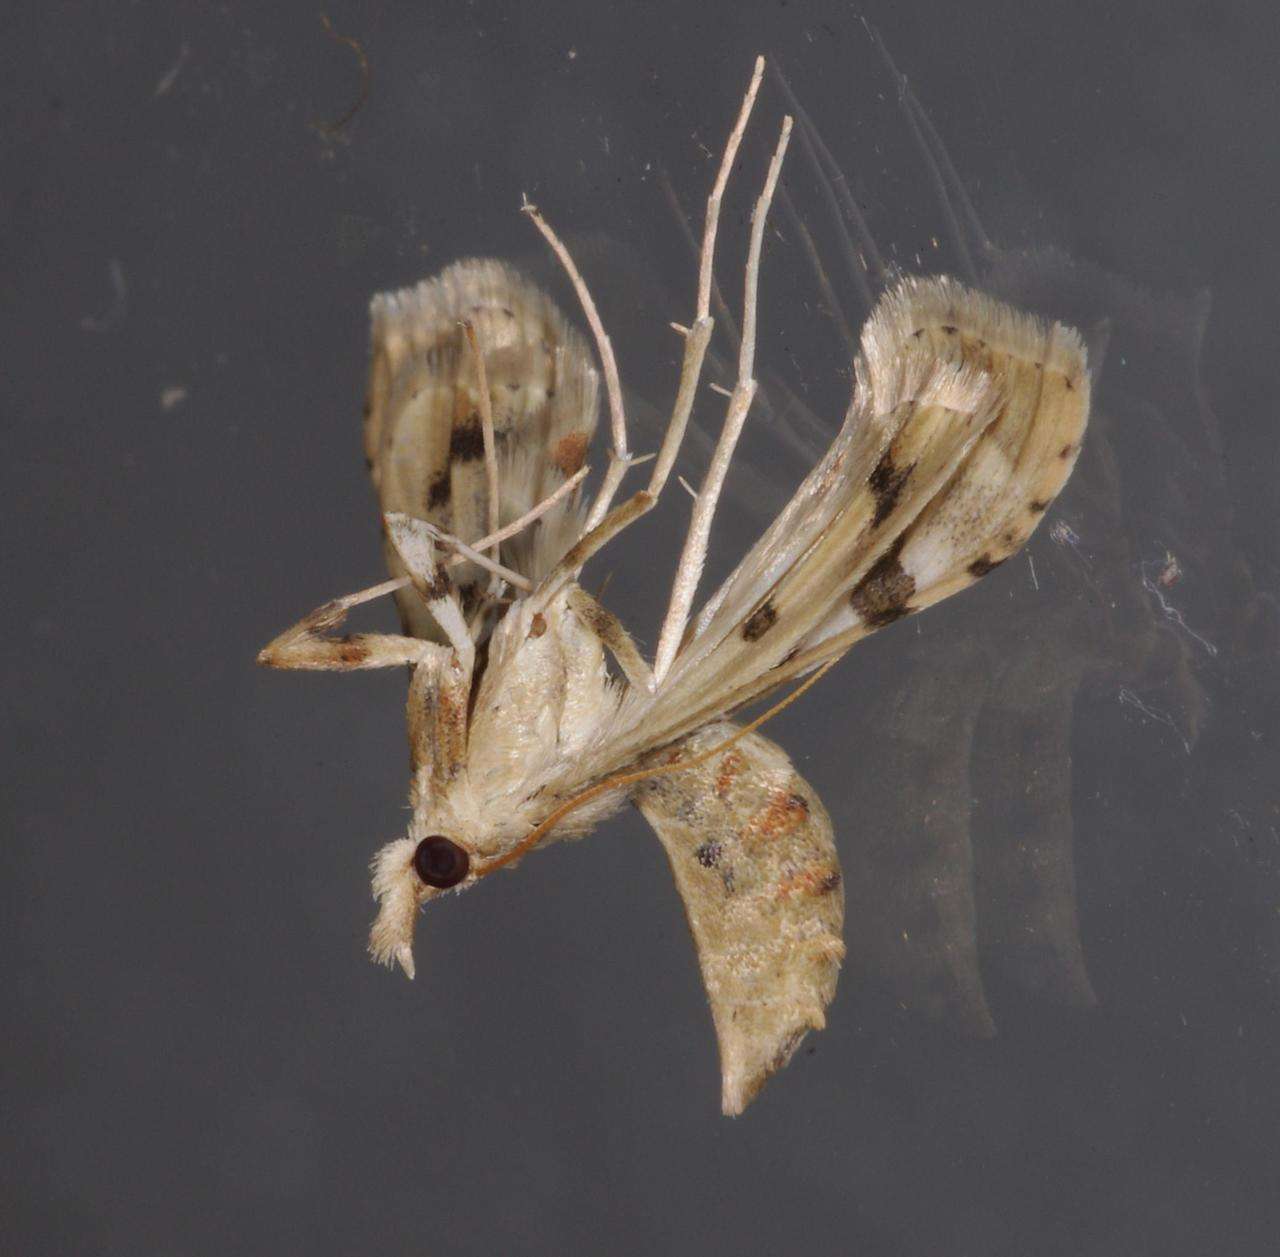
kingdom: Animalia
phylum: Arthropoda
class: Insecta
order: Lepidoptera
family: Crambidae
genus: Sceliodes
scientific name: Sceliodes cordalis
